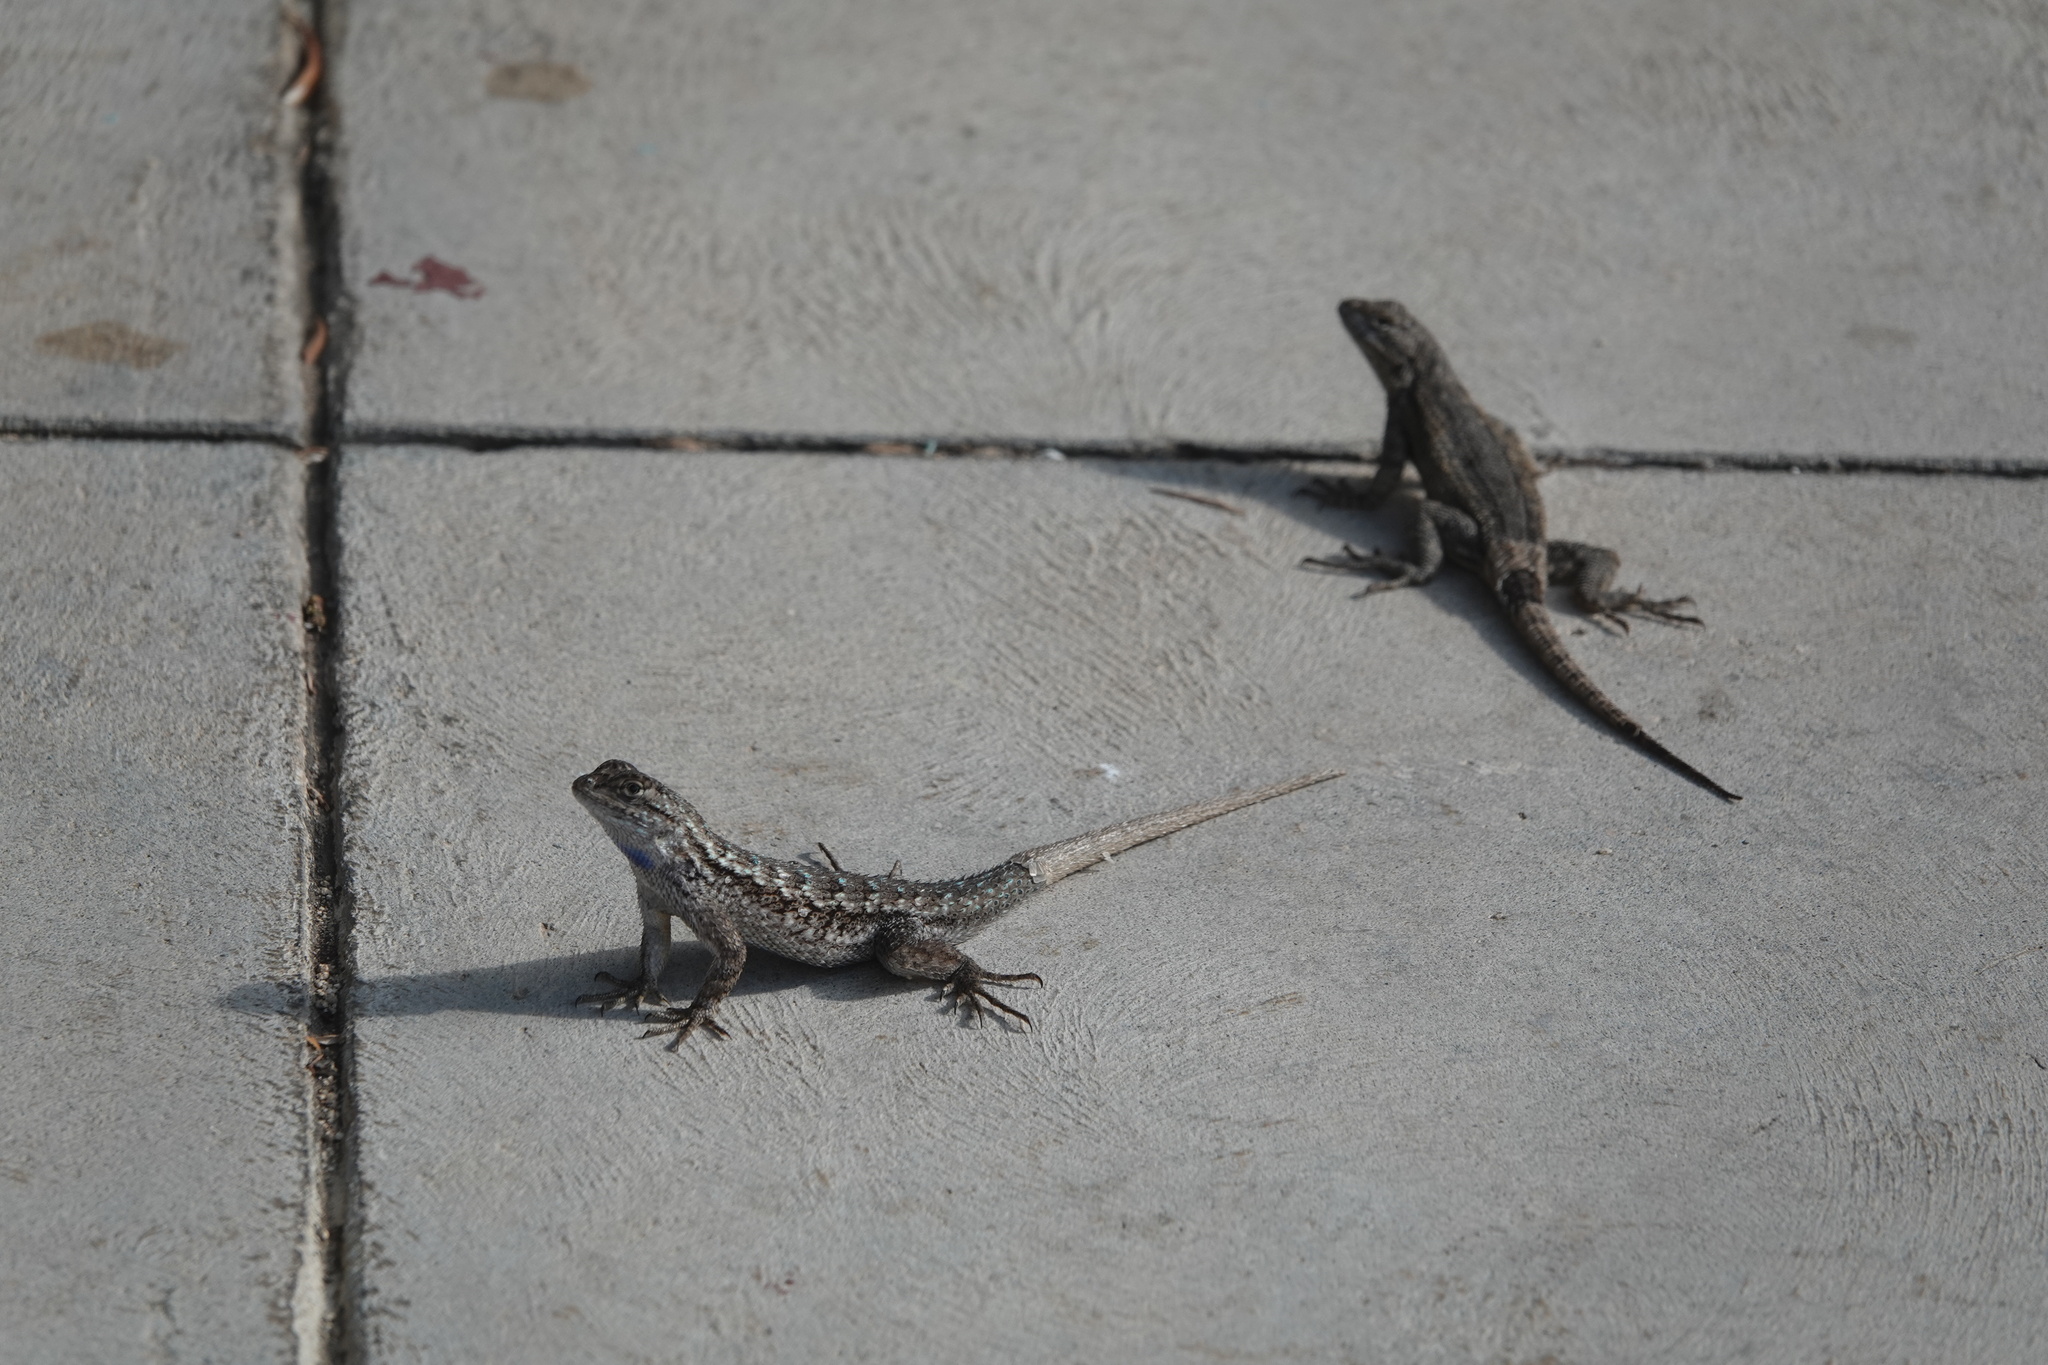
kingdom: Animalia
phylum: Chordata
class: Squamata
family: Phrynosomatidae
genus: Sceloporus
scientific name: Sceloporus occidentalis
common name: Western fence lizard
